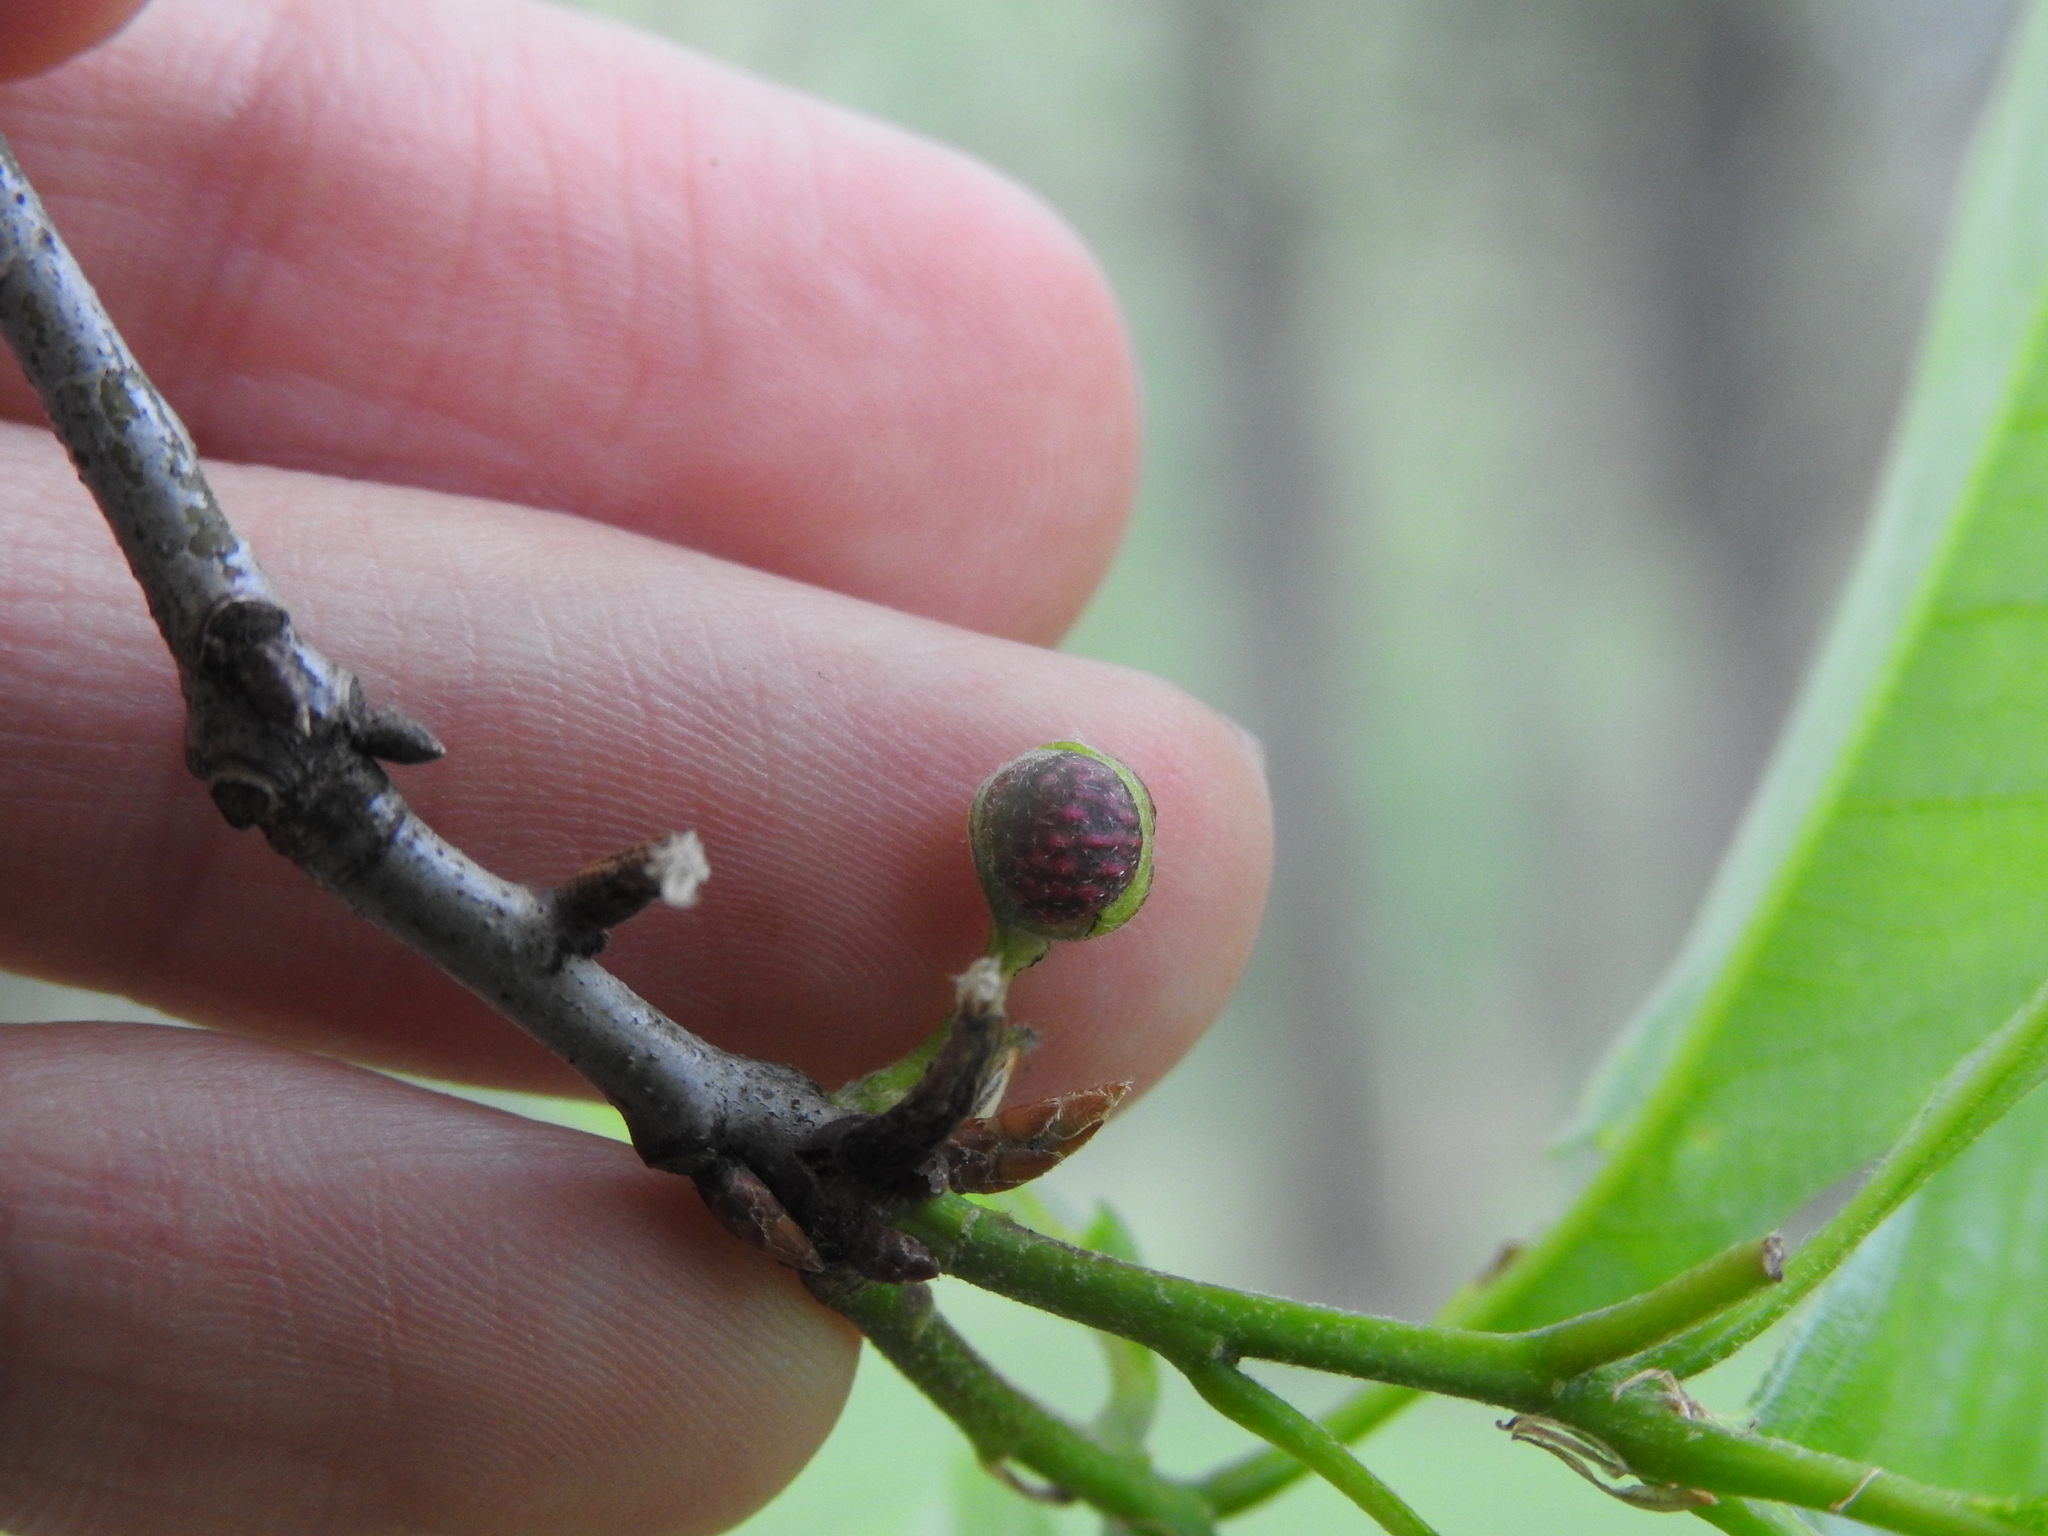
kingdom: Animalia
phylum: Arthropoda
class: Insecta
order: Hymenoptera
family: Cynipidae
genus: Dryocosmus
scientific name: Dryocosmus quercuspalustris
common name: Succulent oak gall wasp
